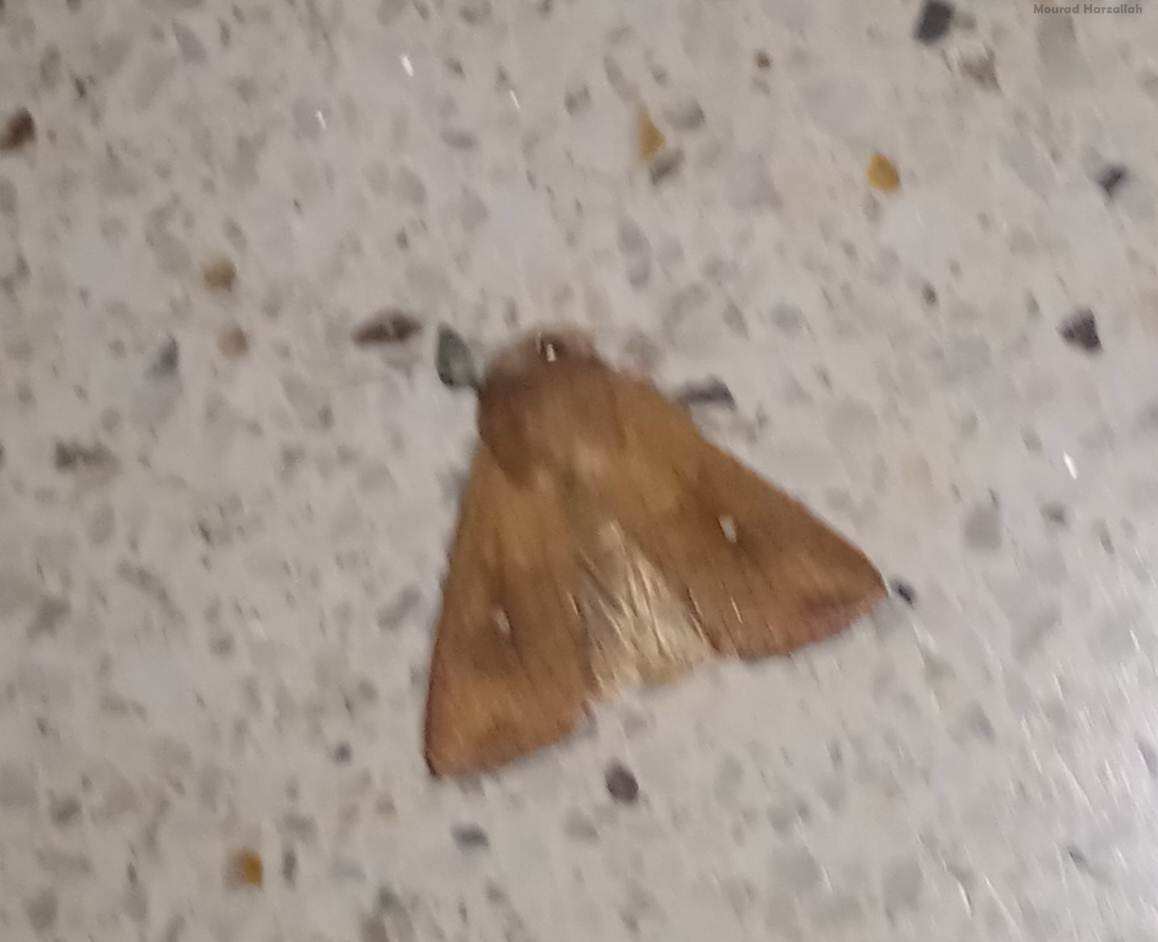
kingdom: Animalia
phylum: Arthropoda
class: Insecta
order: Lepidoptera
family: Noctuidae
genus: Mythimna
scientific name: Mythimna albipuncta
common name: White-point
